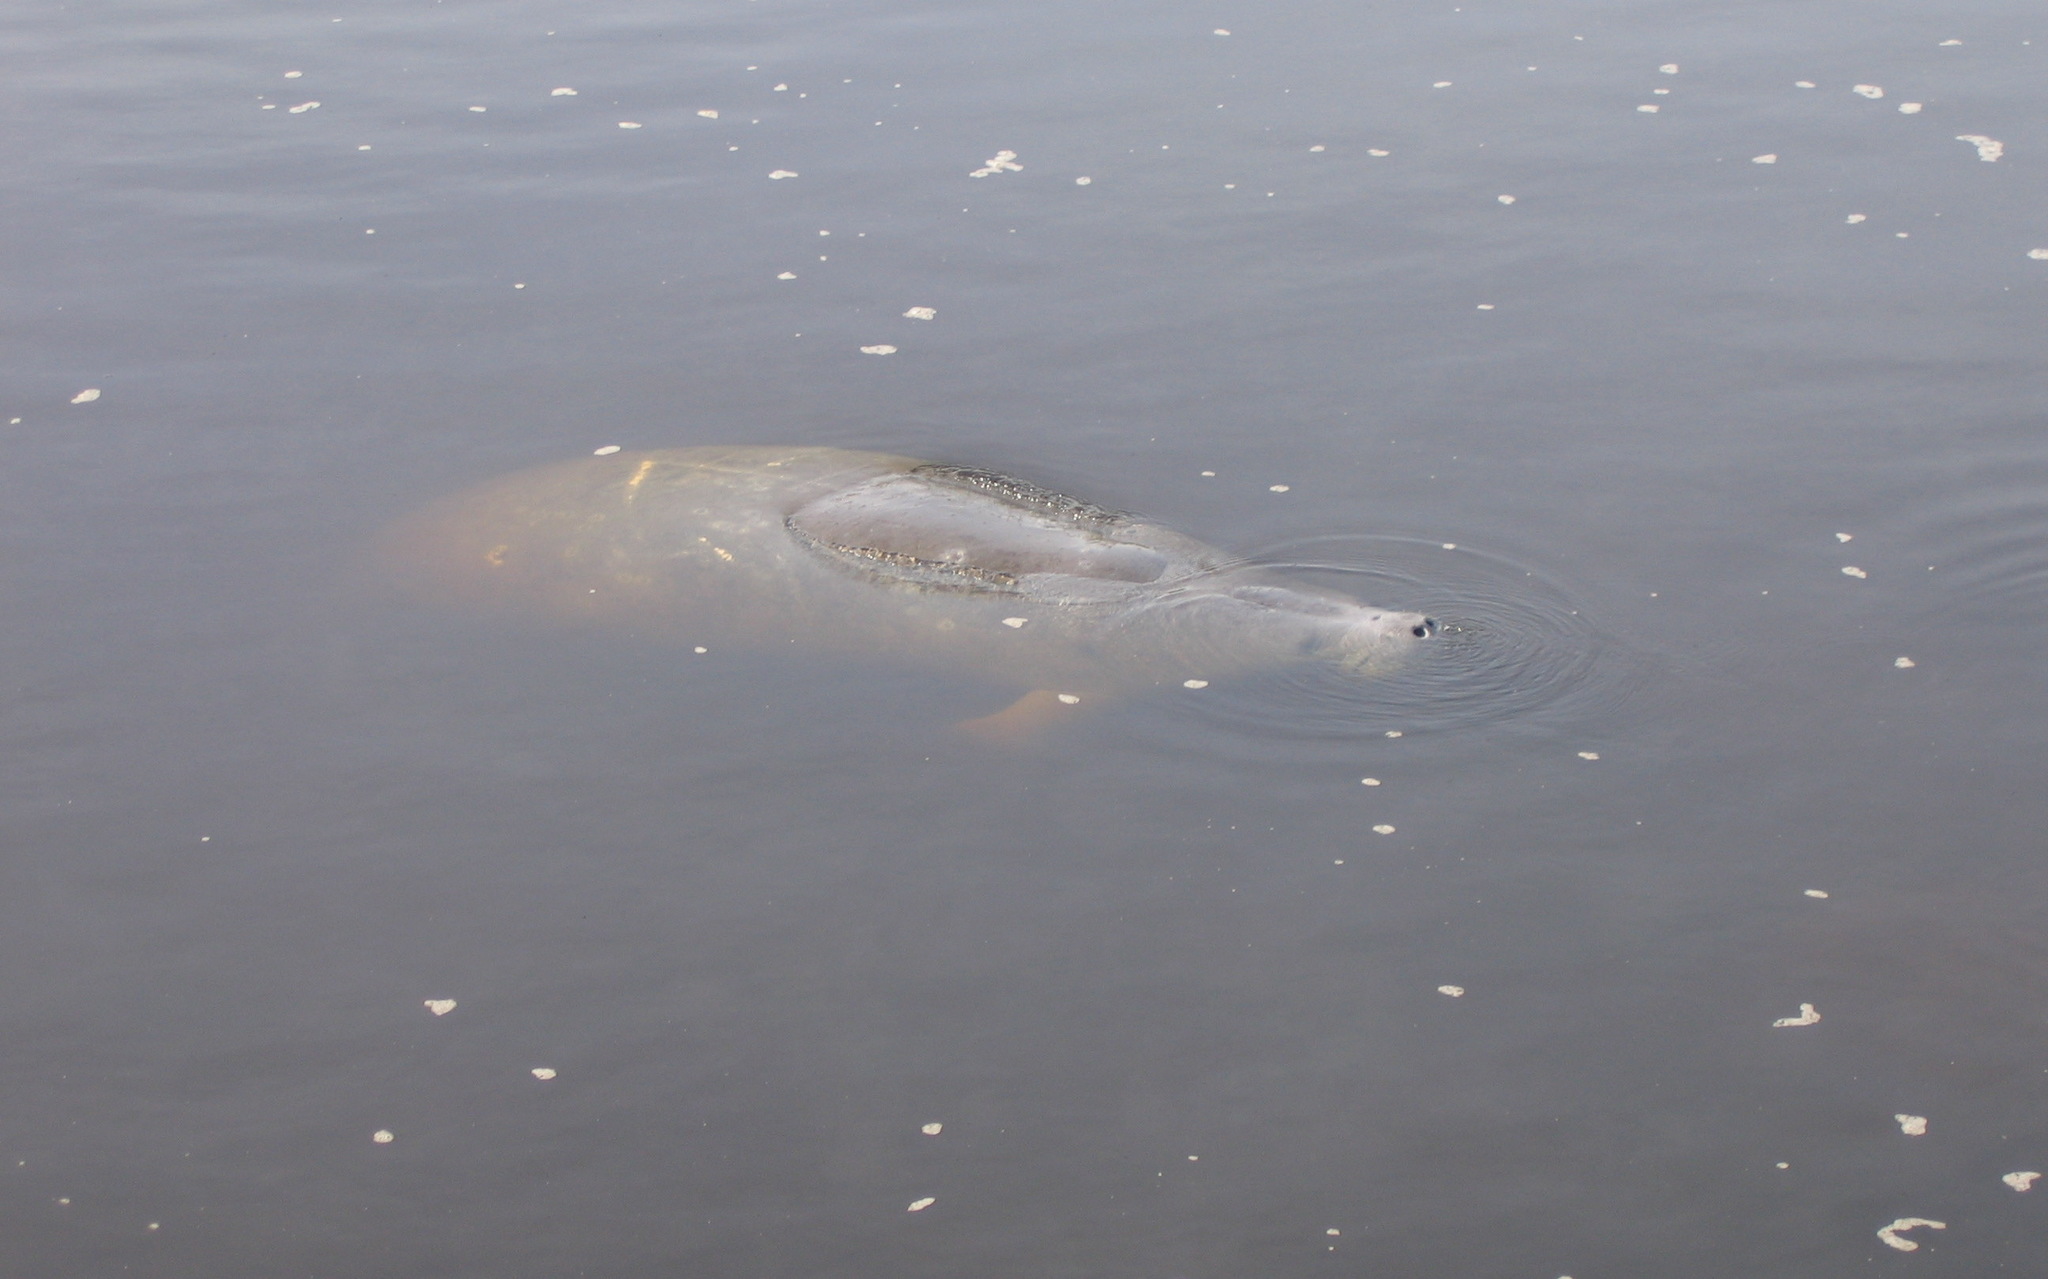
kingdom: Animalia
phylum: Chordata
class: Mammalia
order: Sirenia
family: Trichechidae
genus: Trichechus
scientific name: Trichechus manatus
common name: West indian manatee
